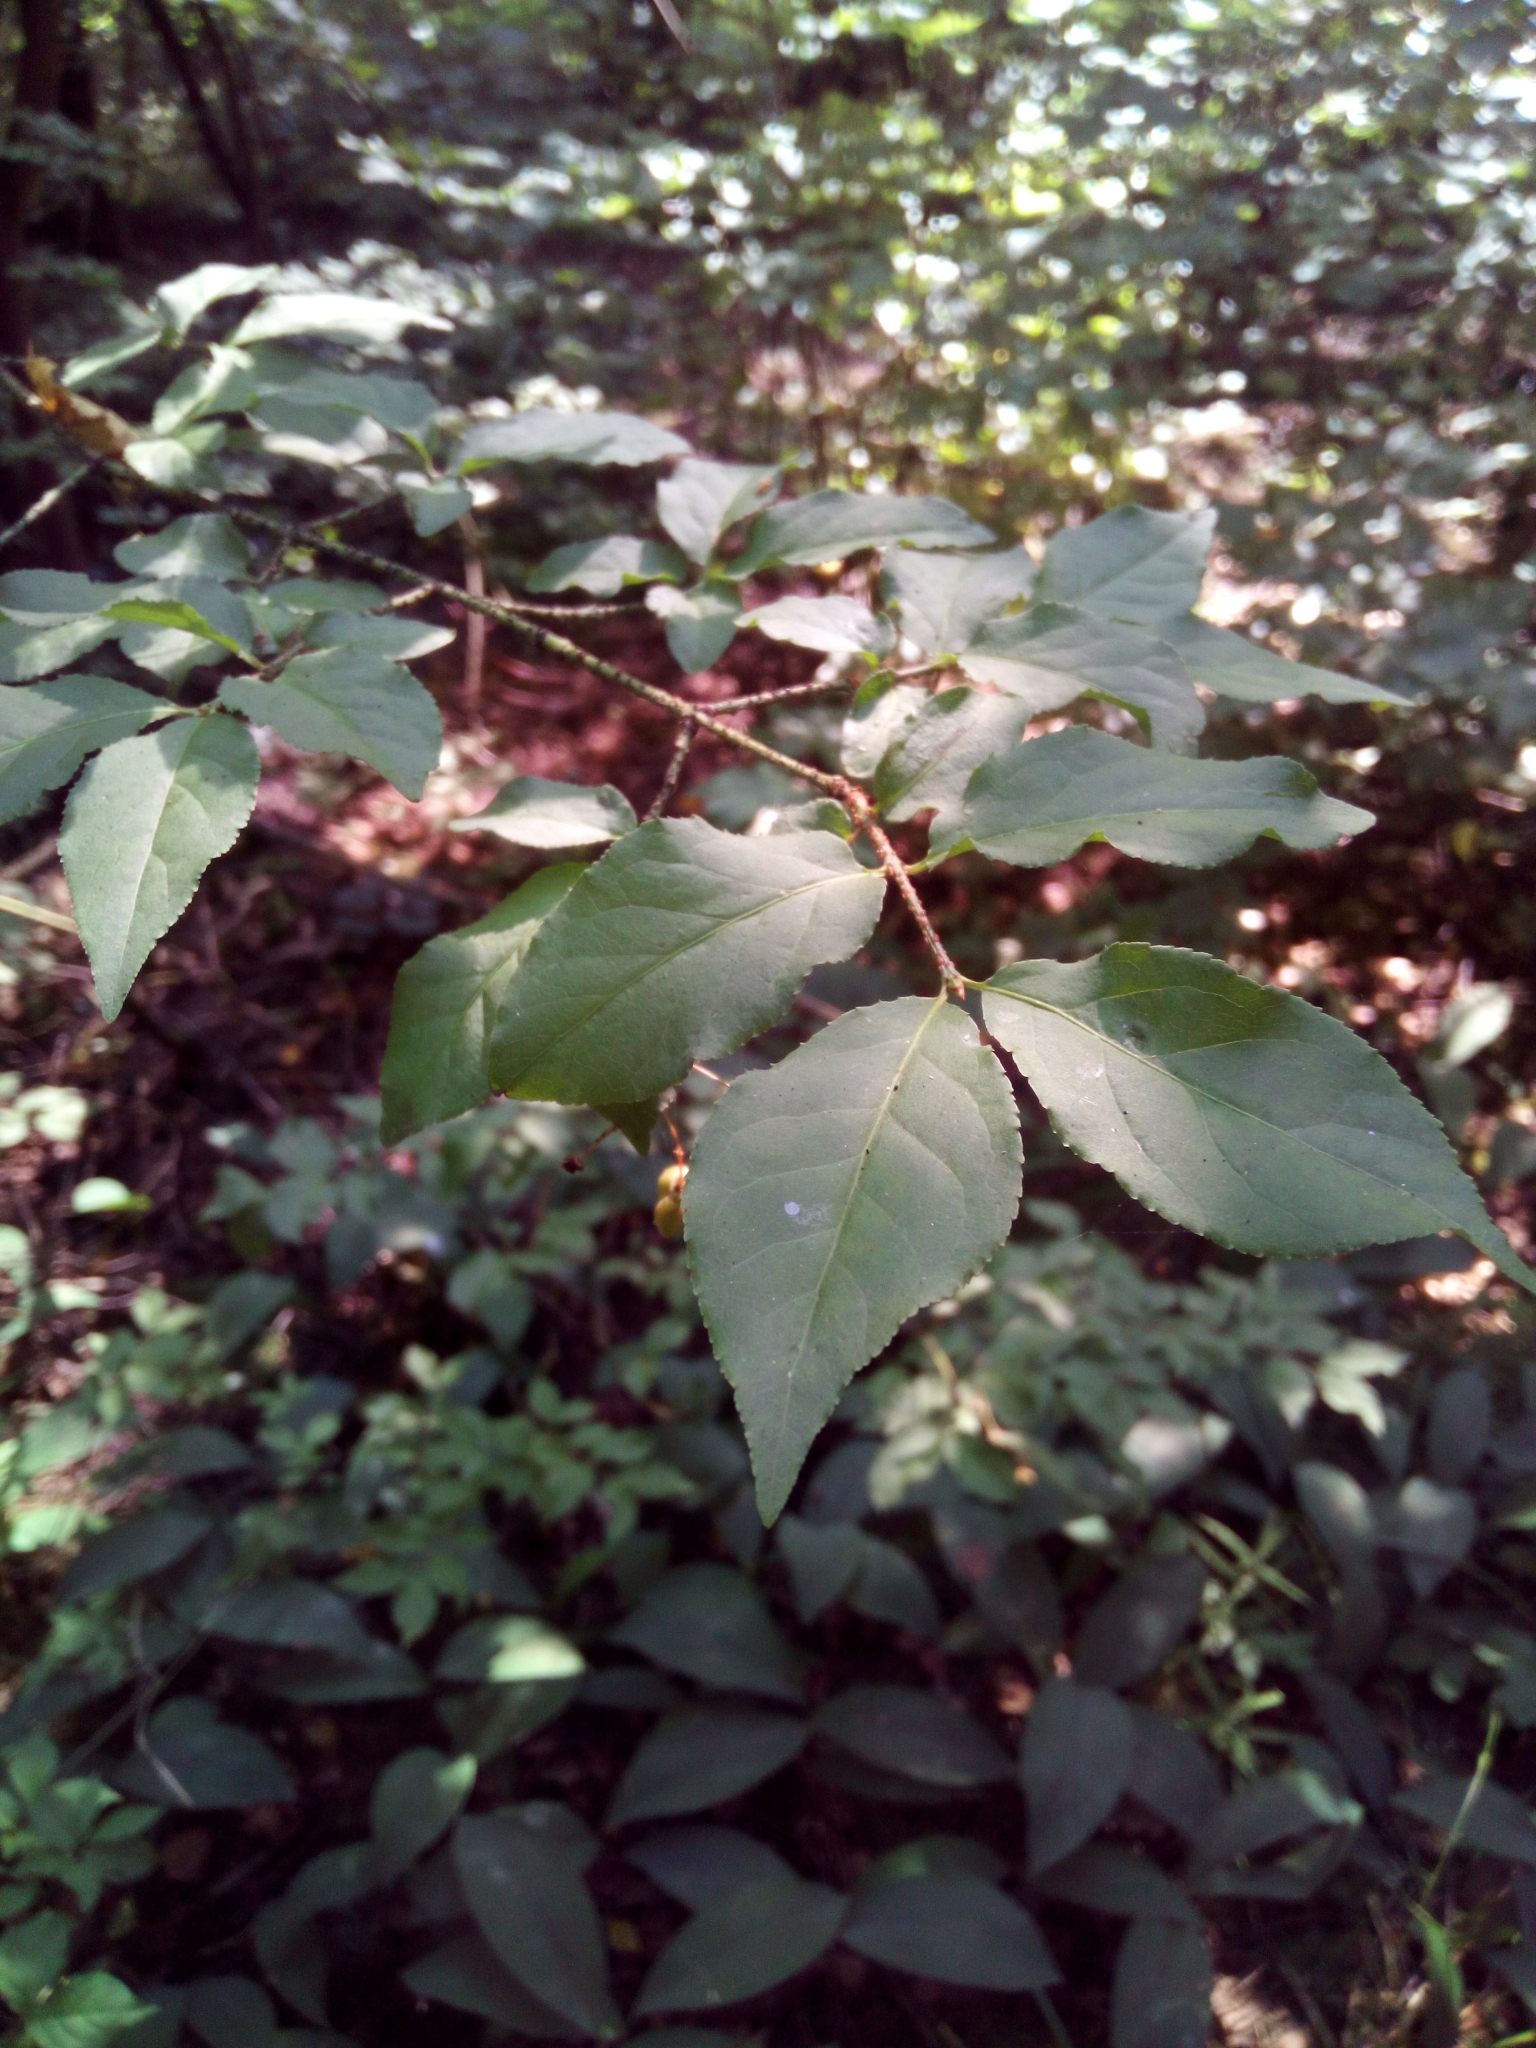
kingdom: Plantae
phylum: Tracheophyta
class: Magnoliopsida
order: Celastrales
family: Celastraceae
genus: Euonymus
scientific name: Euonymus verrucosus
